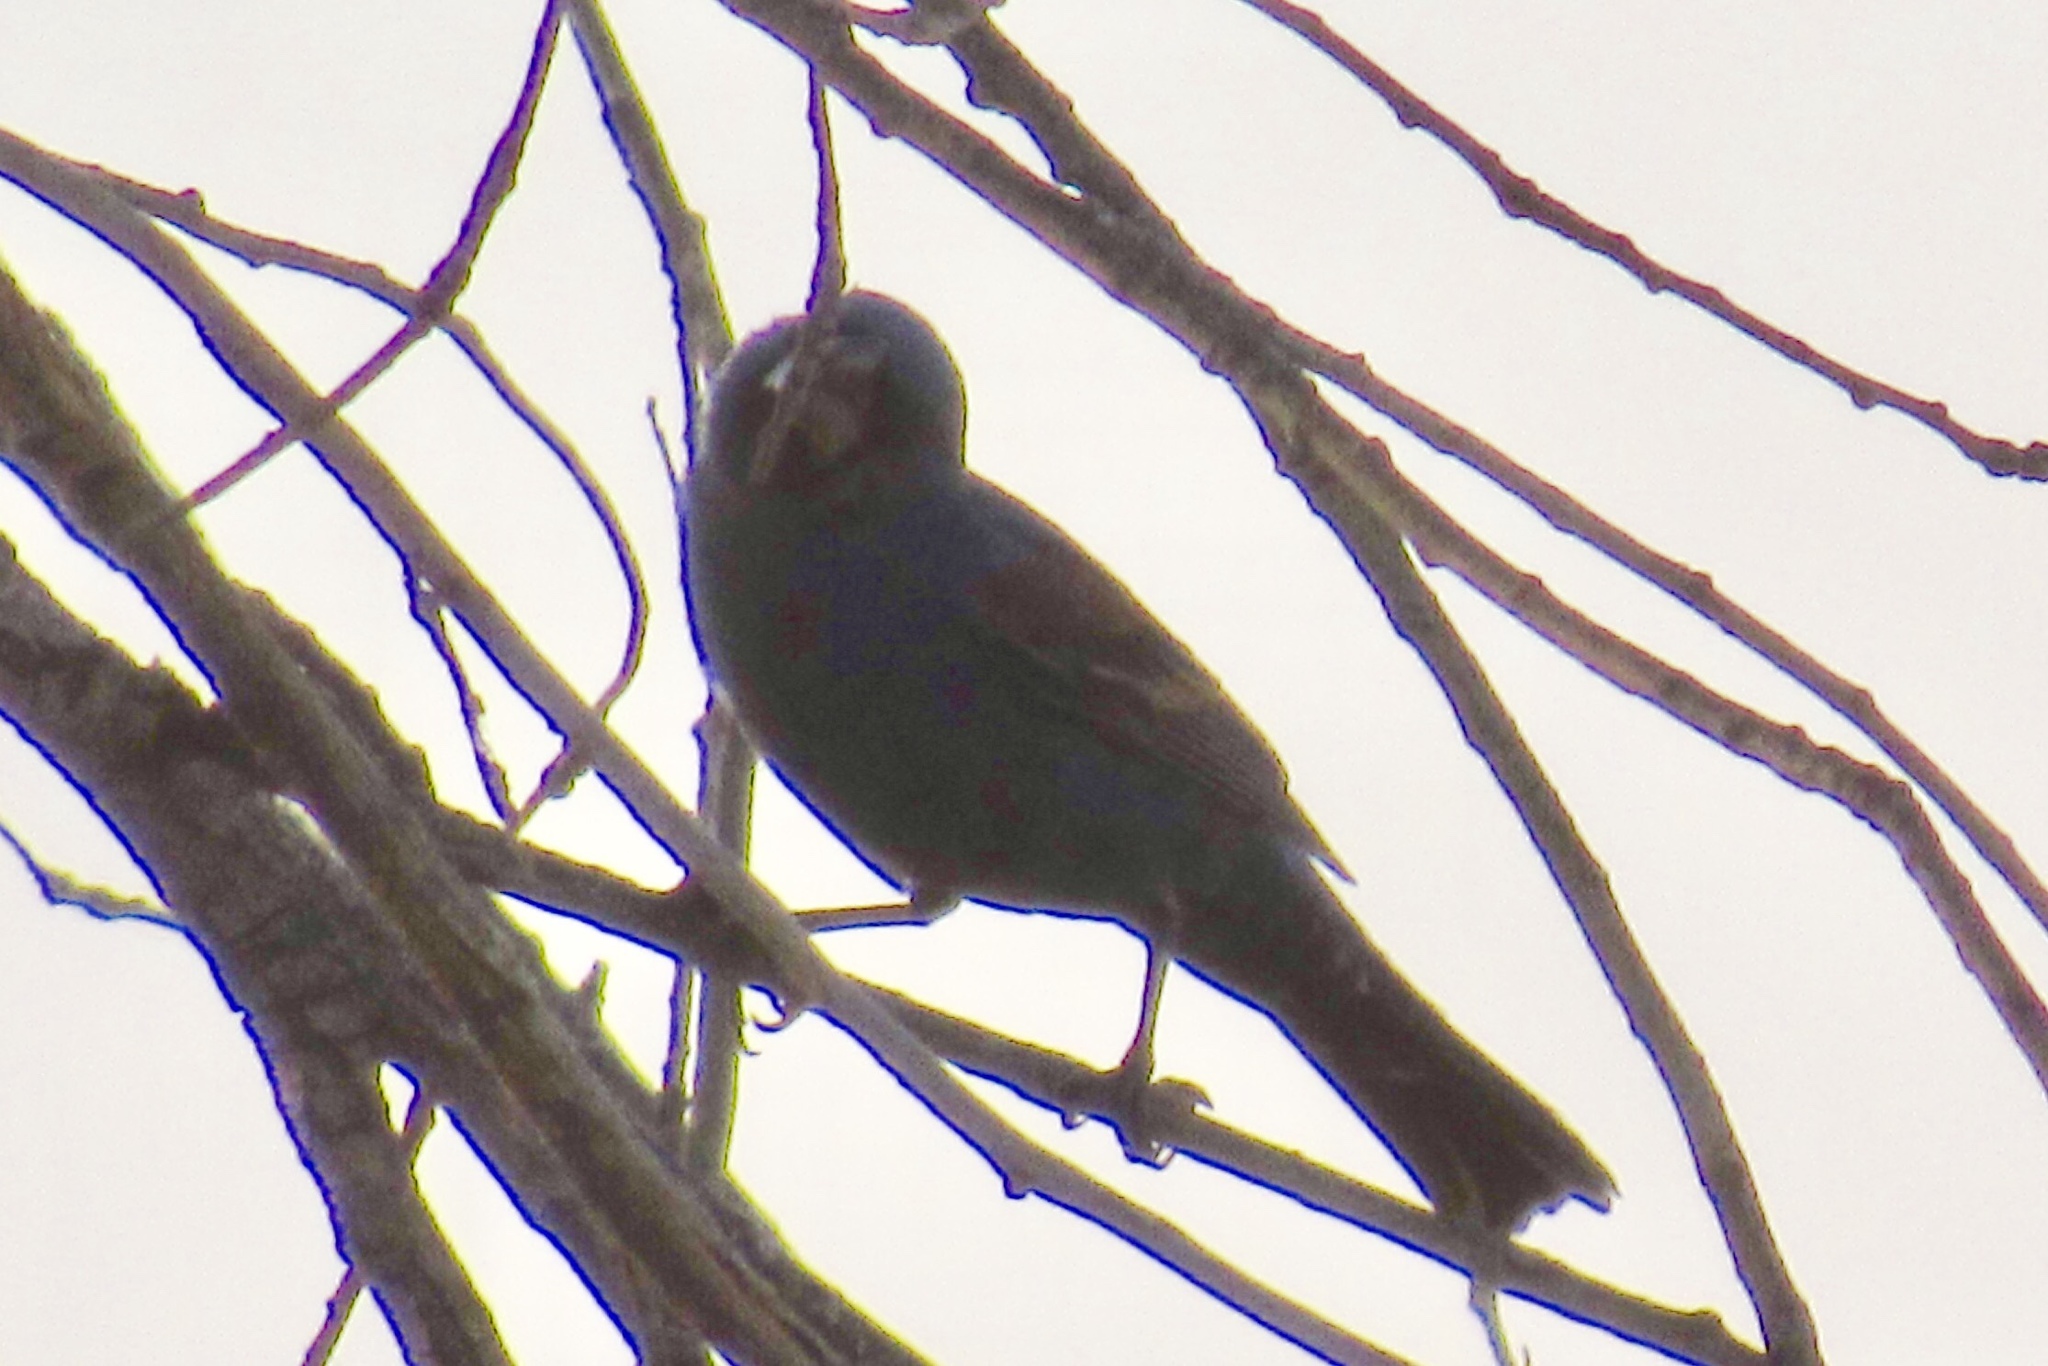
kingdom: Animalia
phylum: Chordata
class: Aves
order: Passeriformes
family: Cardinalidae
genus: Passerina
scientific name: Passerina caerulea
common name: Blue grosbeak
